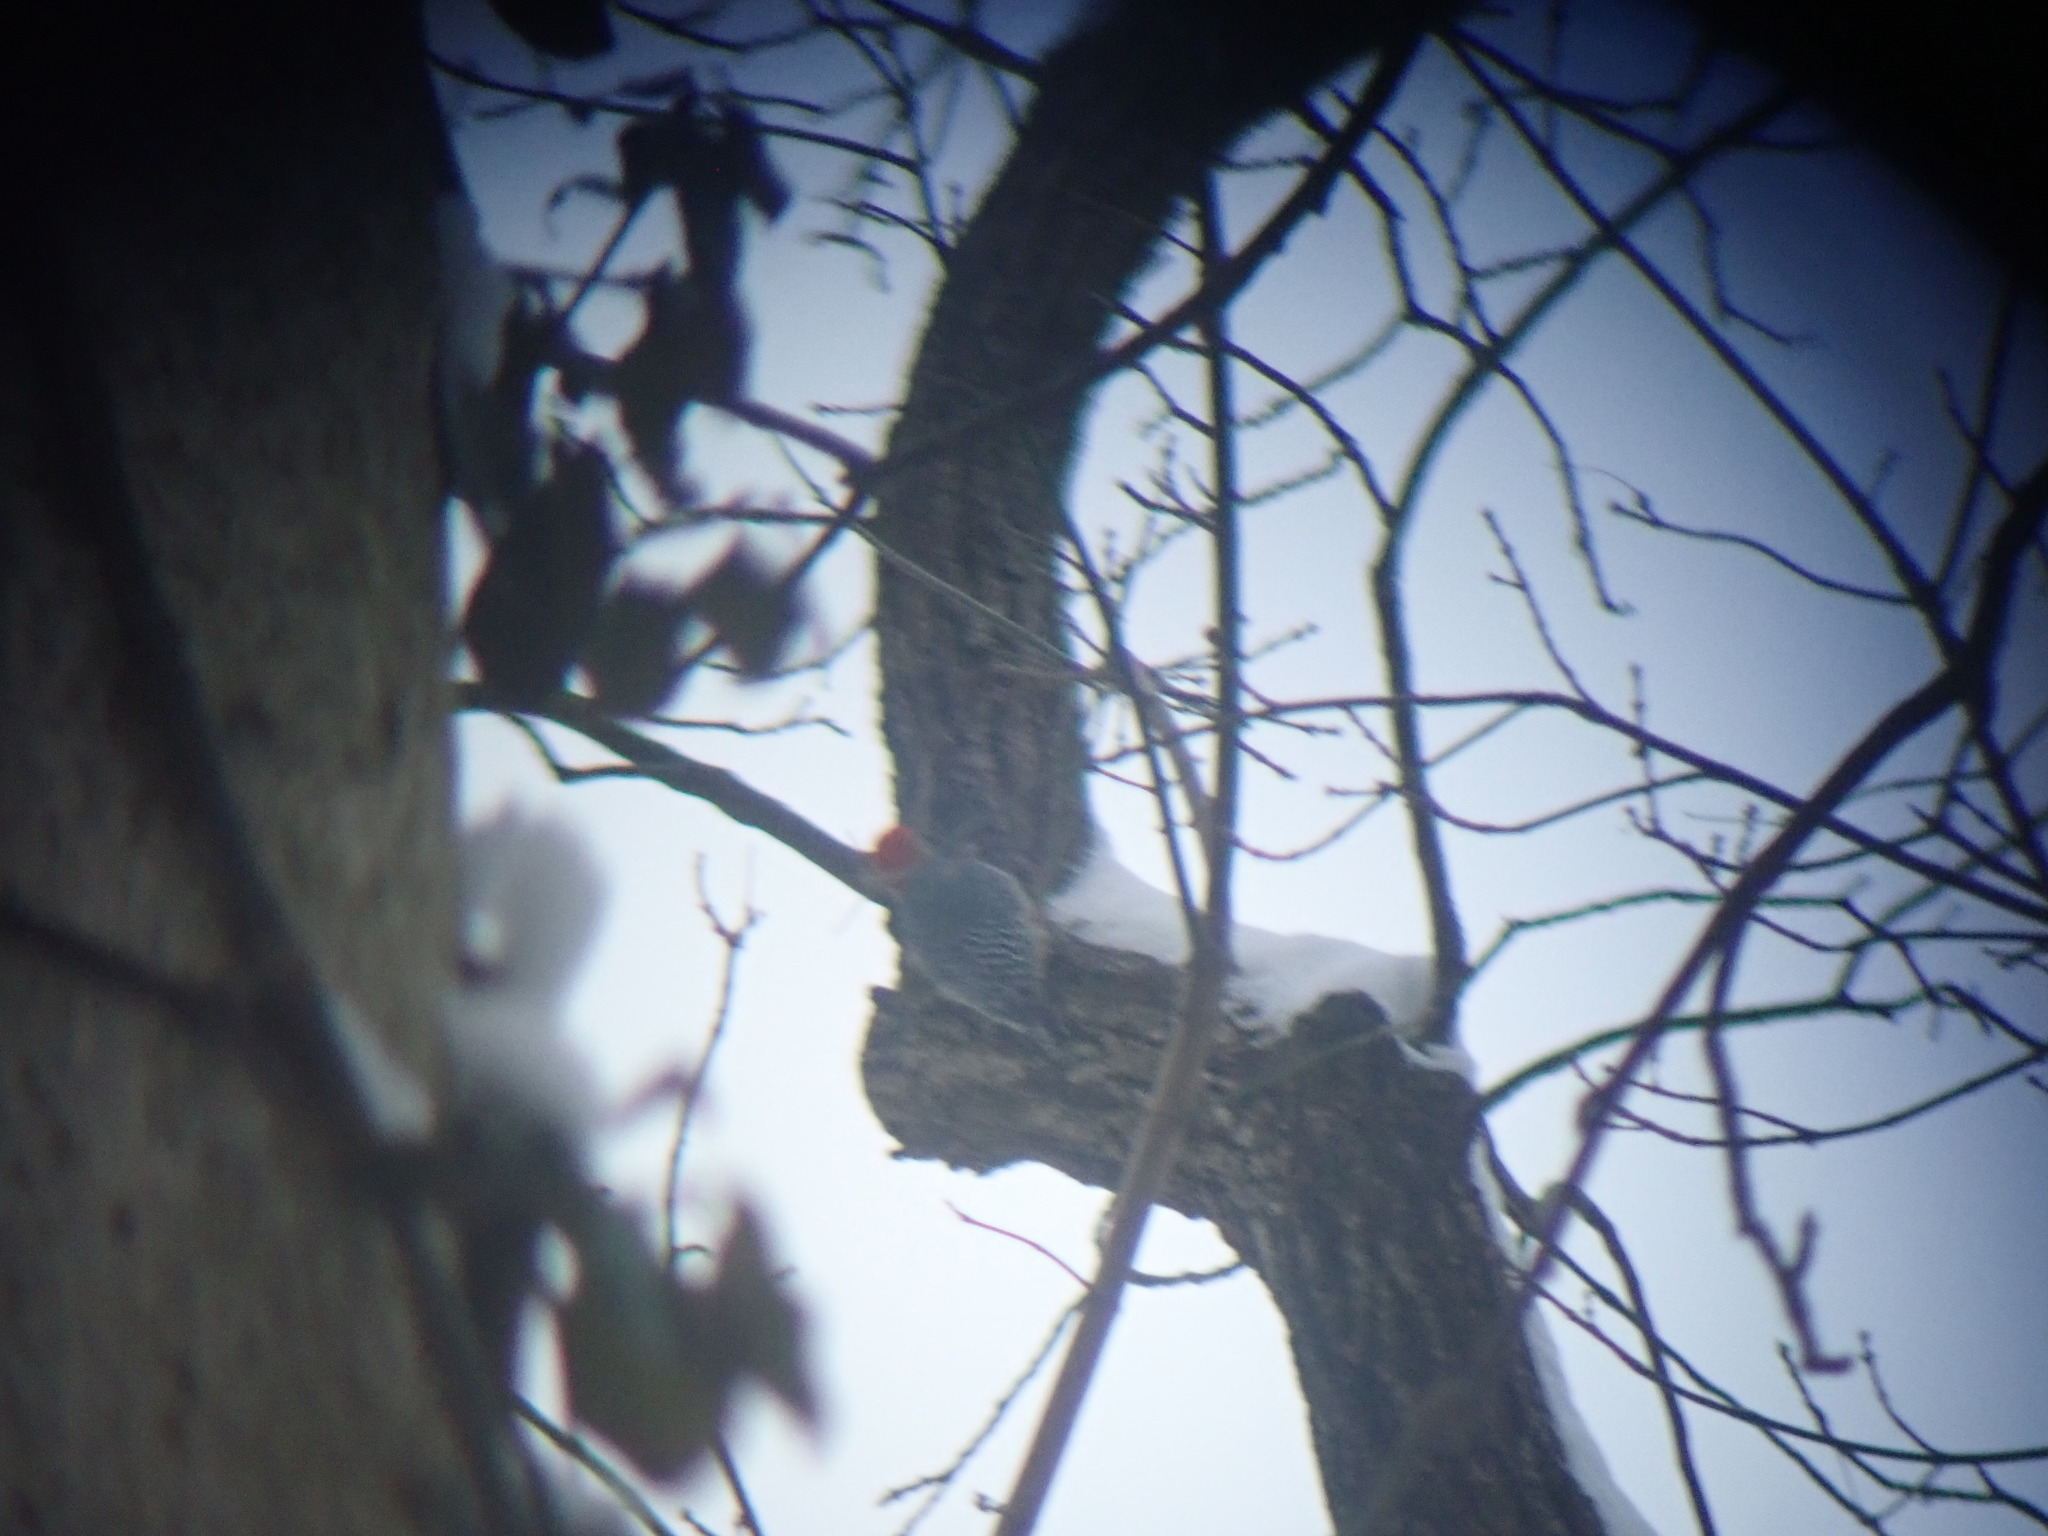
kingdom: Animalia
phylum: Chordata
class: Aves
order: Piciformes
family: Picidae
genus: Melanerpes
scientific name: Melanerpes carolinus
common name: Red-bellied woodpecker
